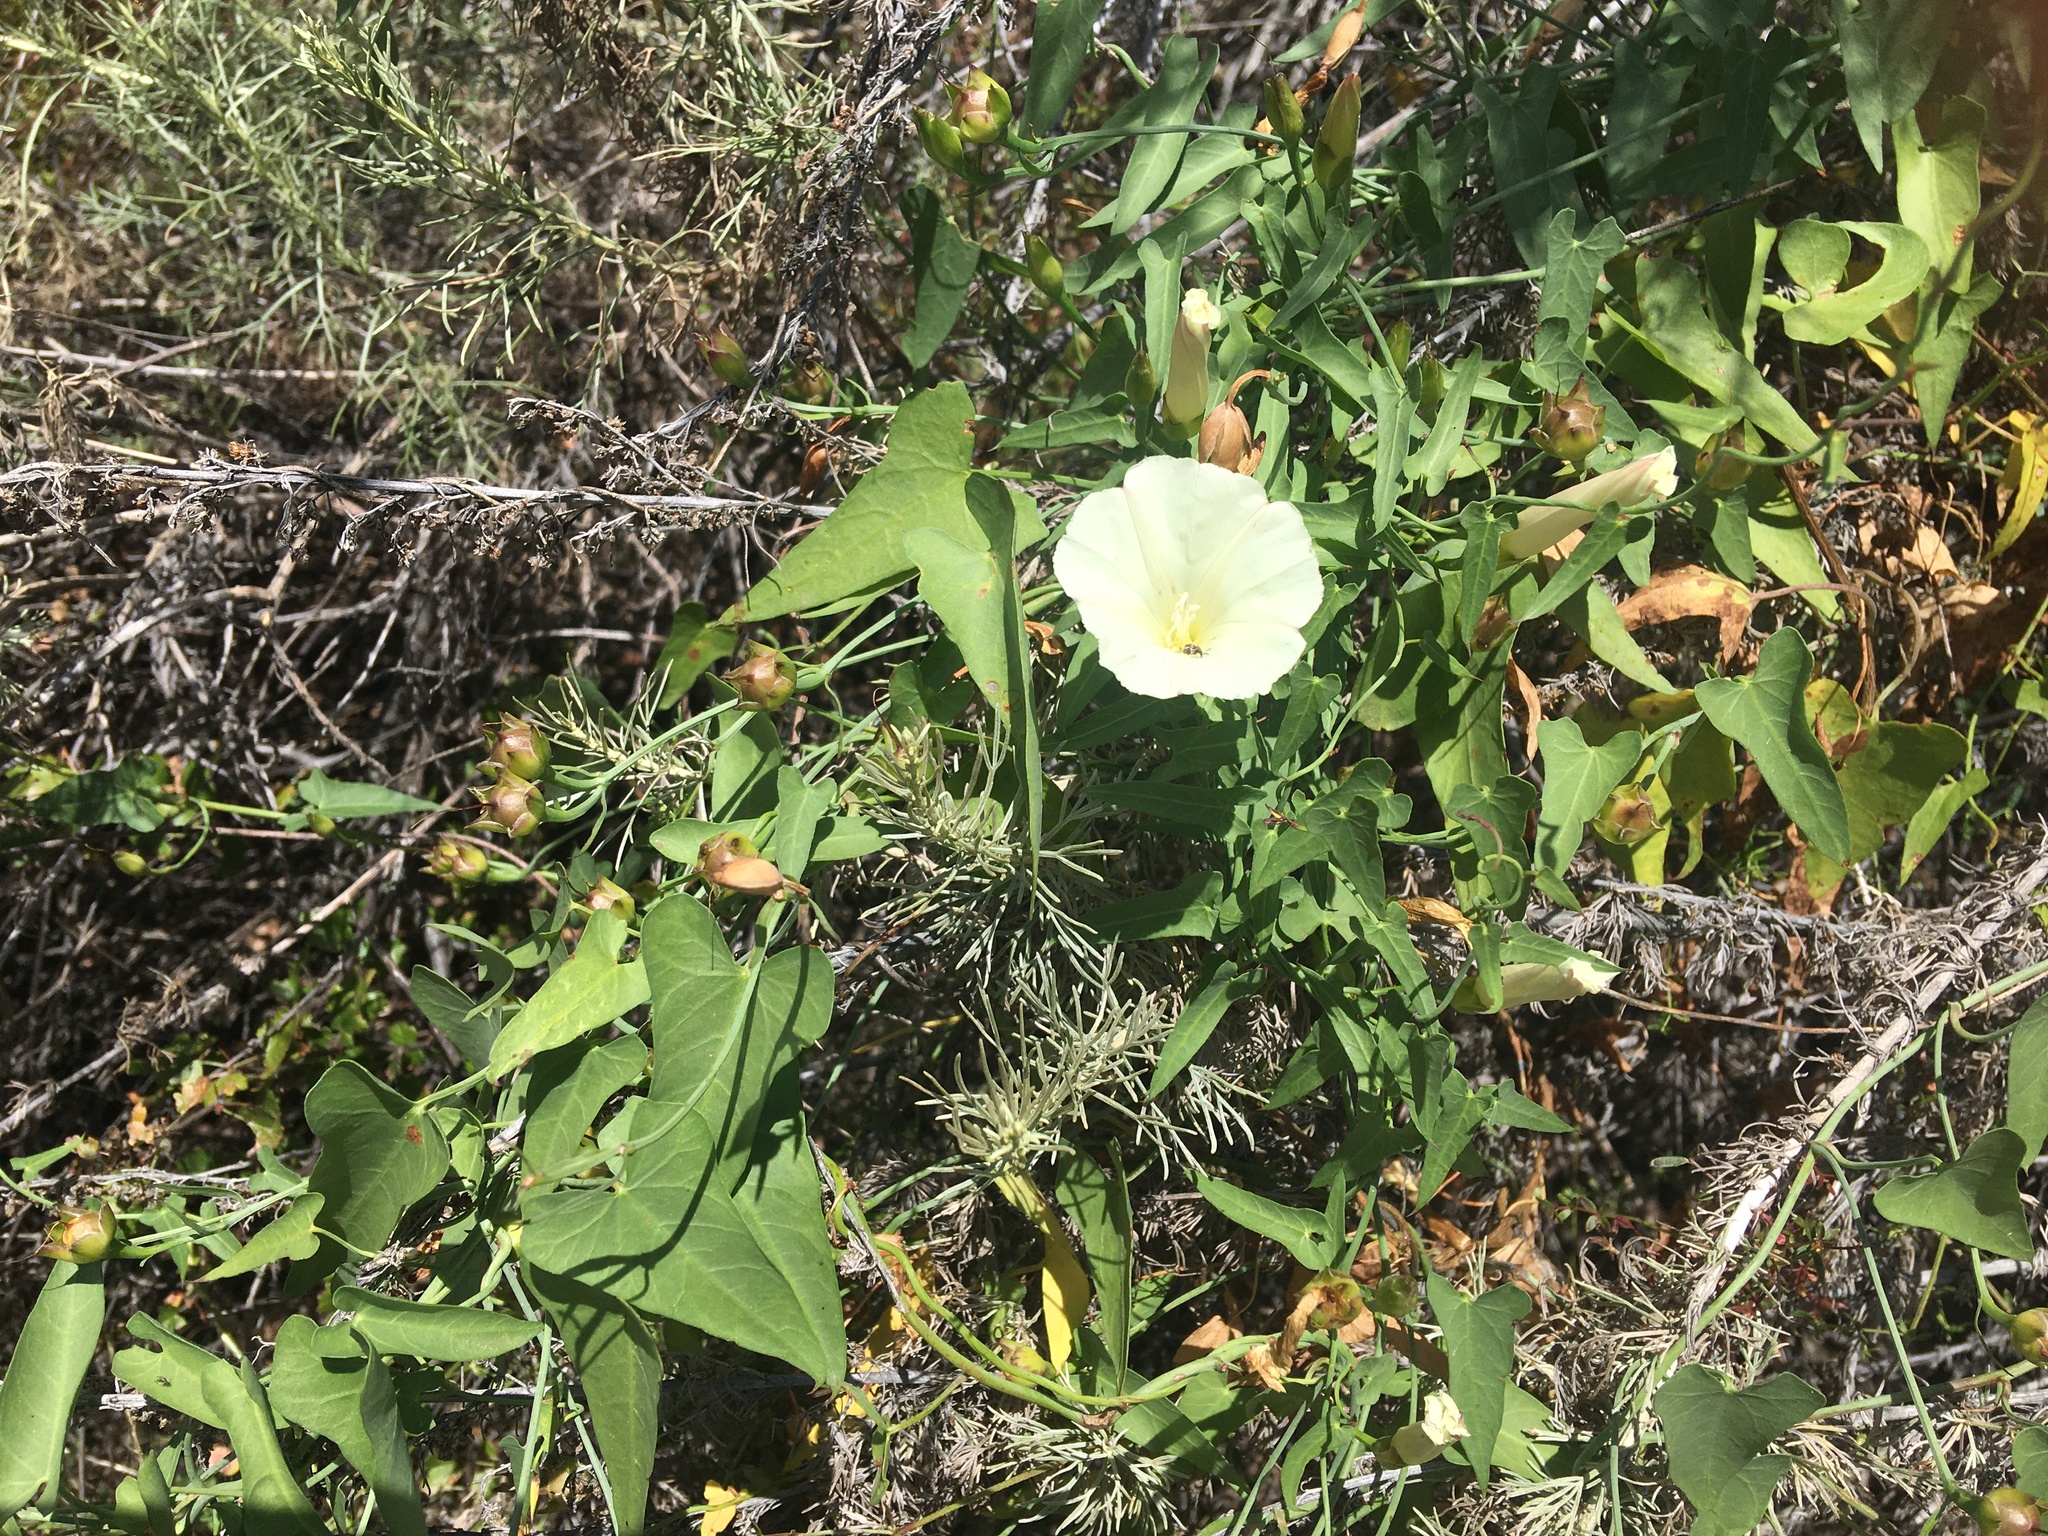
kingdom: Plantae
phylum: Tracheophyta
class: Magnoliopsida
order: Solanales
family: Convolvulaceae
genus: Calystegia
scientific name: Calystegia purpurata
